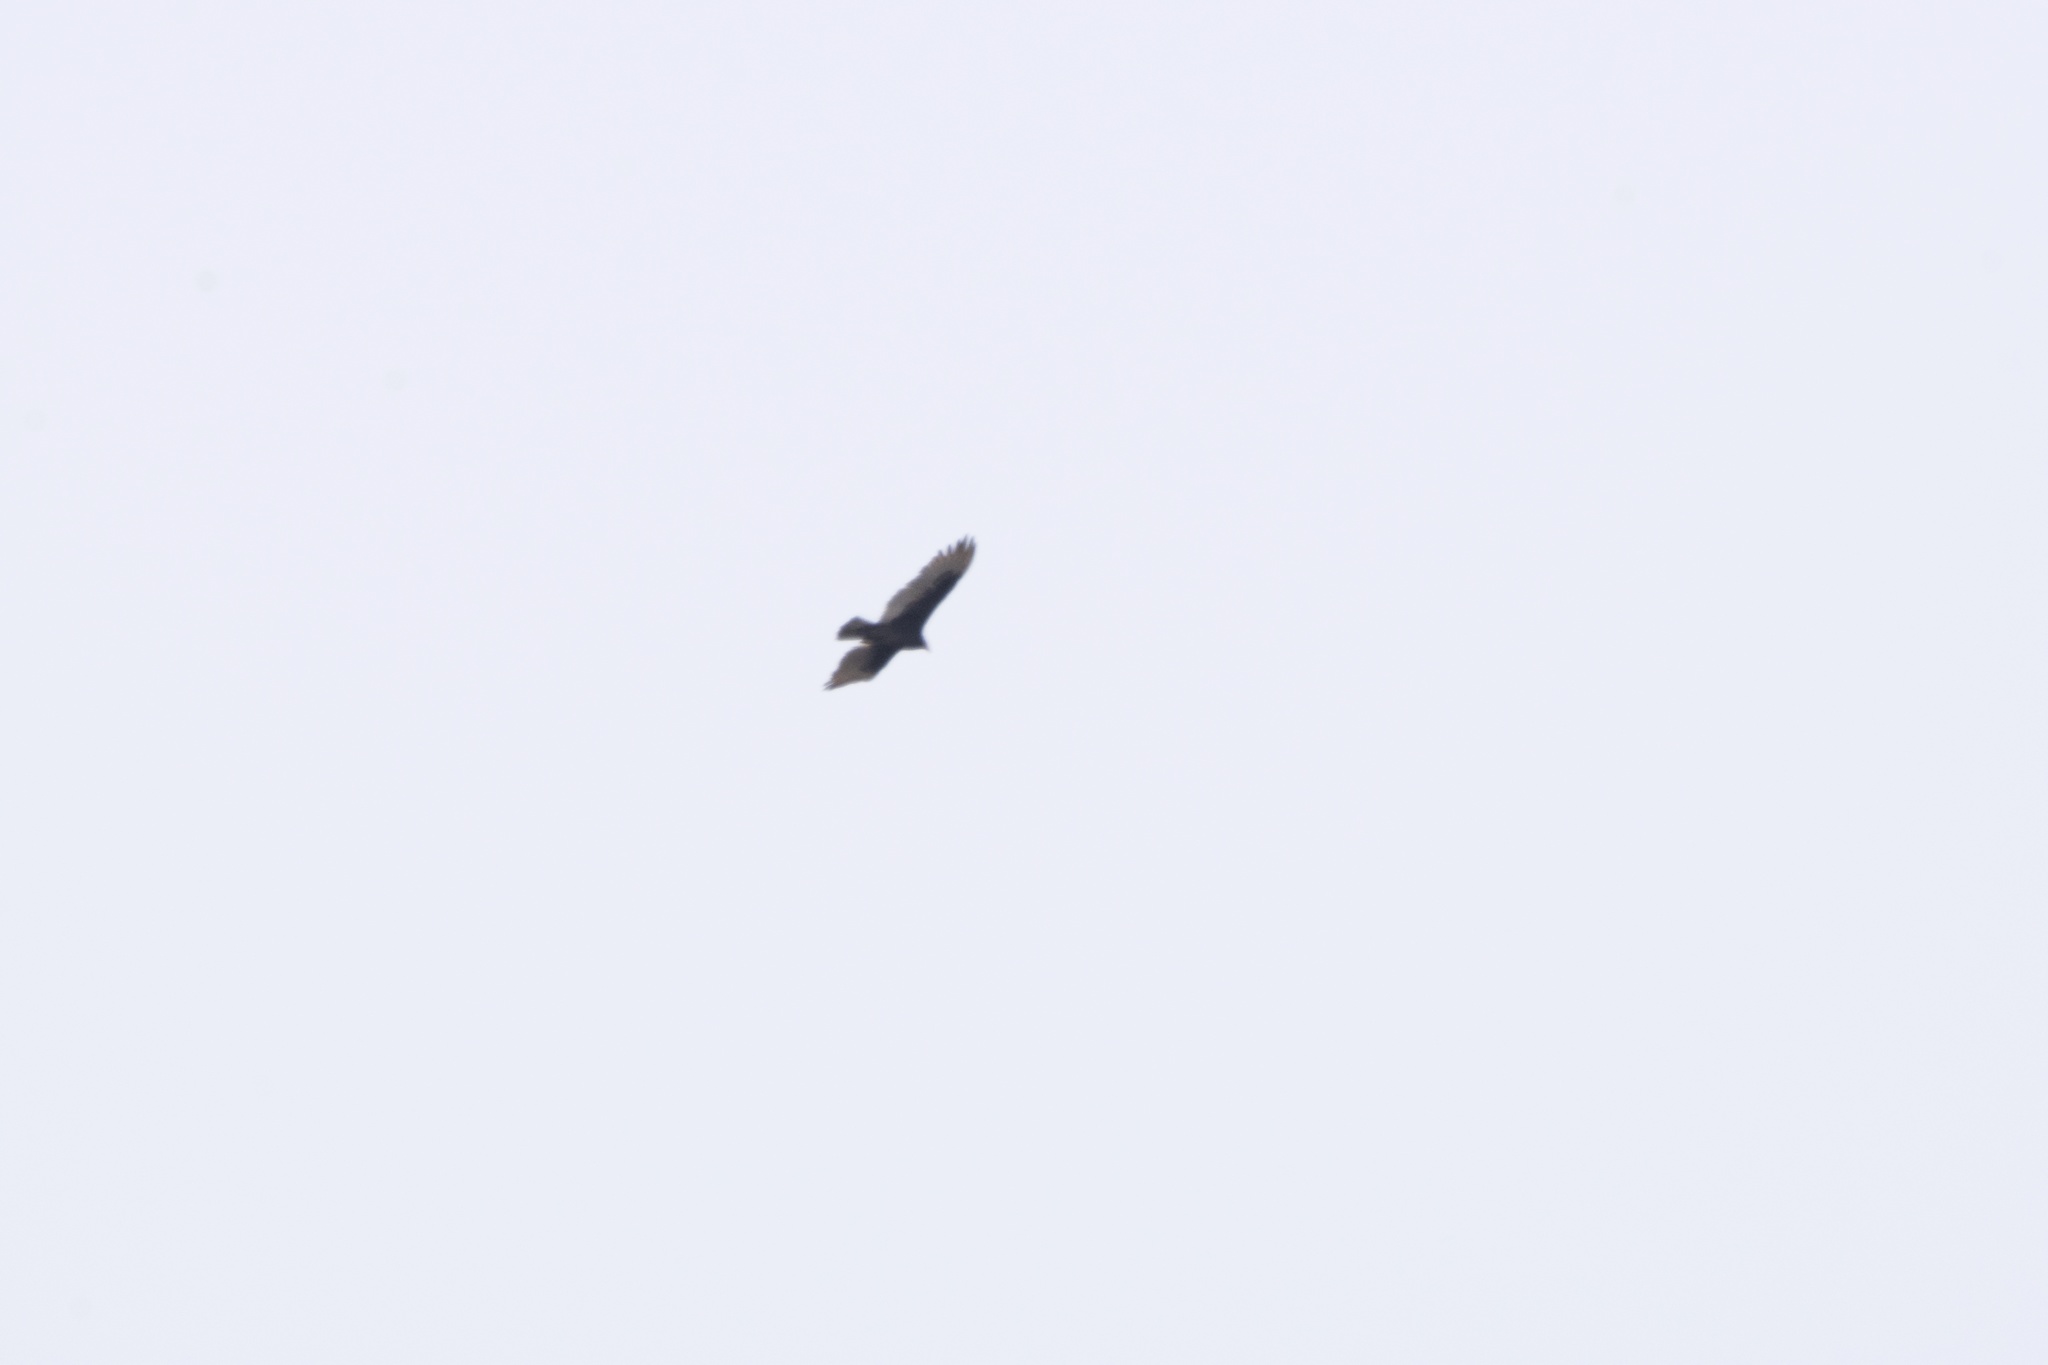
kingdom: Animalia
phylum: Chordata
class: Aves
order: Accipitriformes
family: Cathartidae
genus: Cathartes
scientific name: Cathartes aura
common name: Turkey vulture
